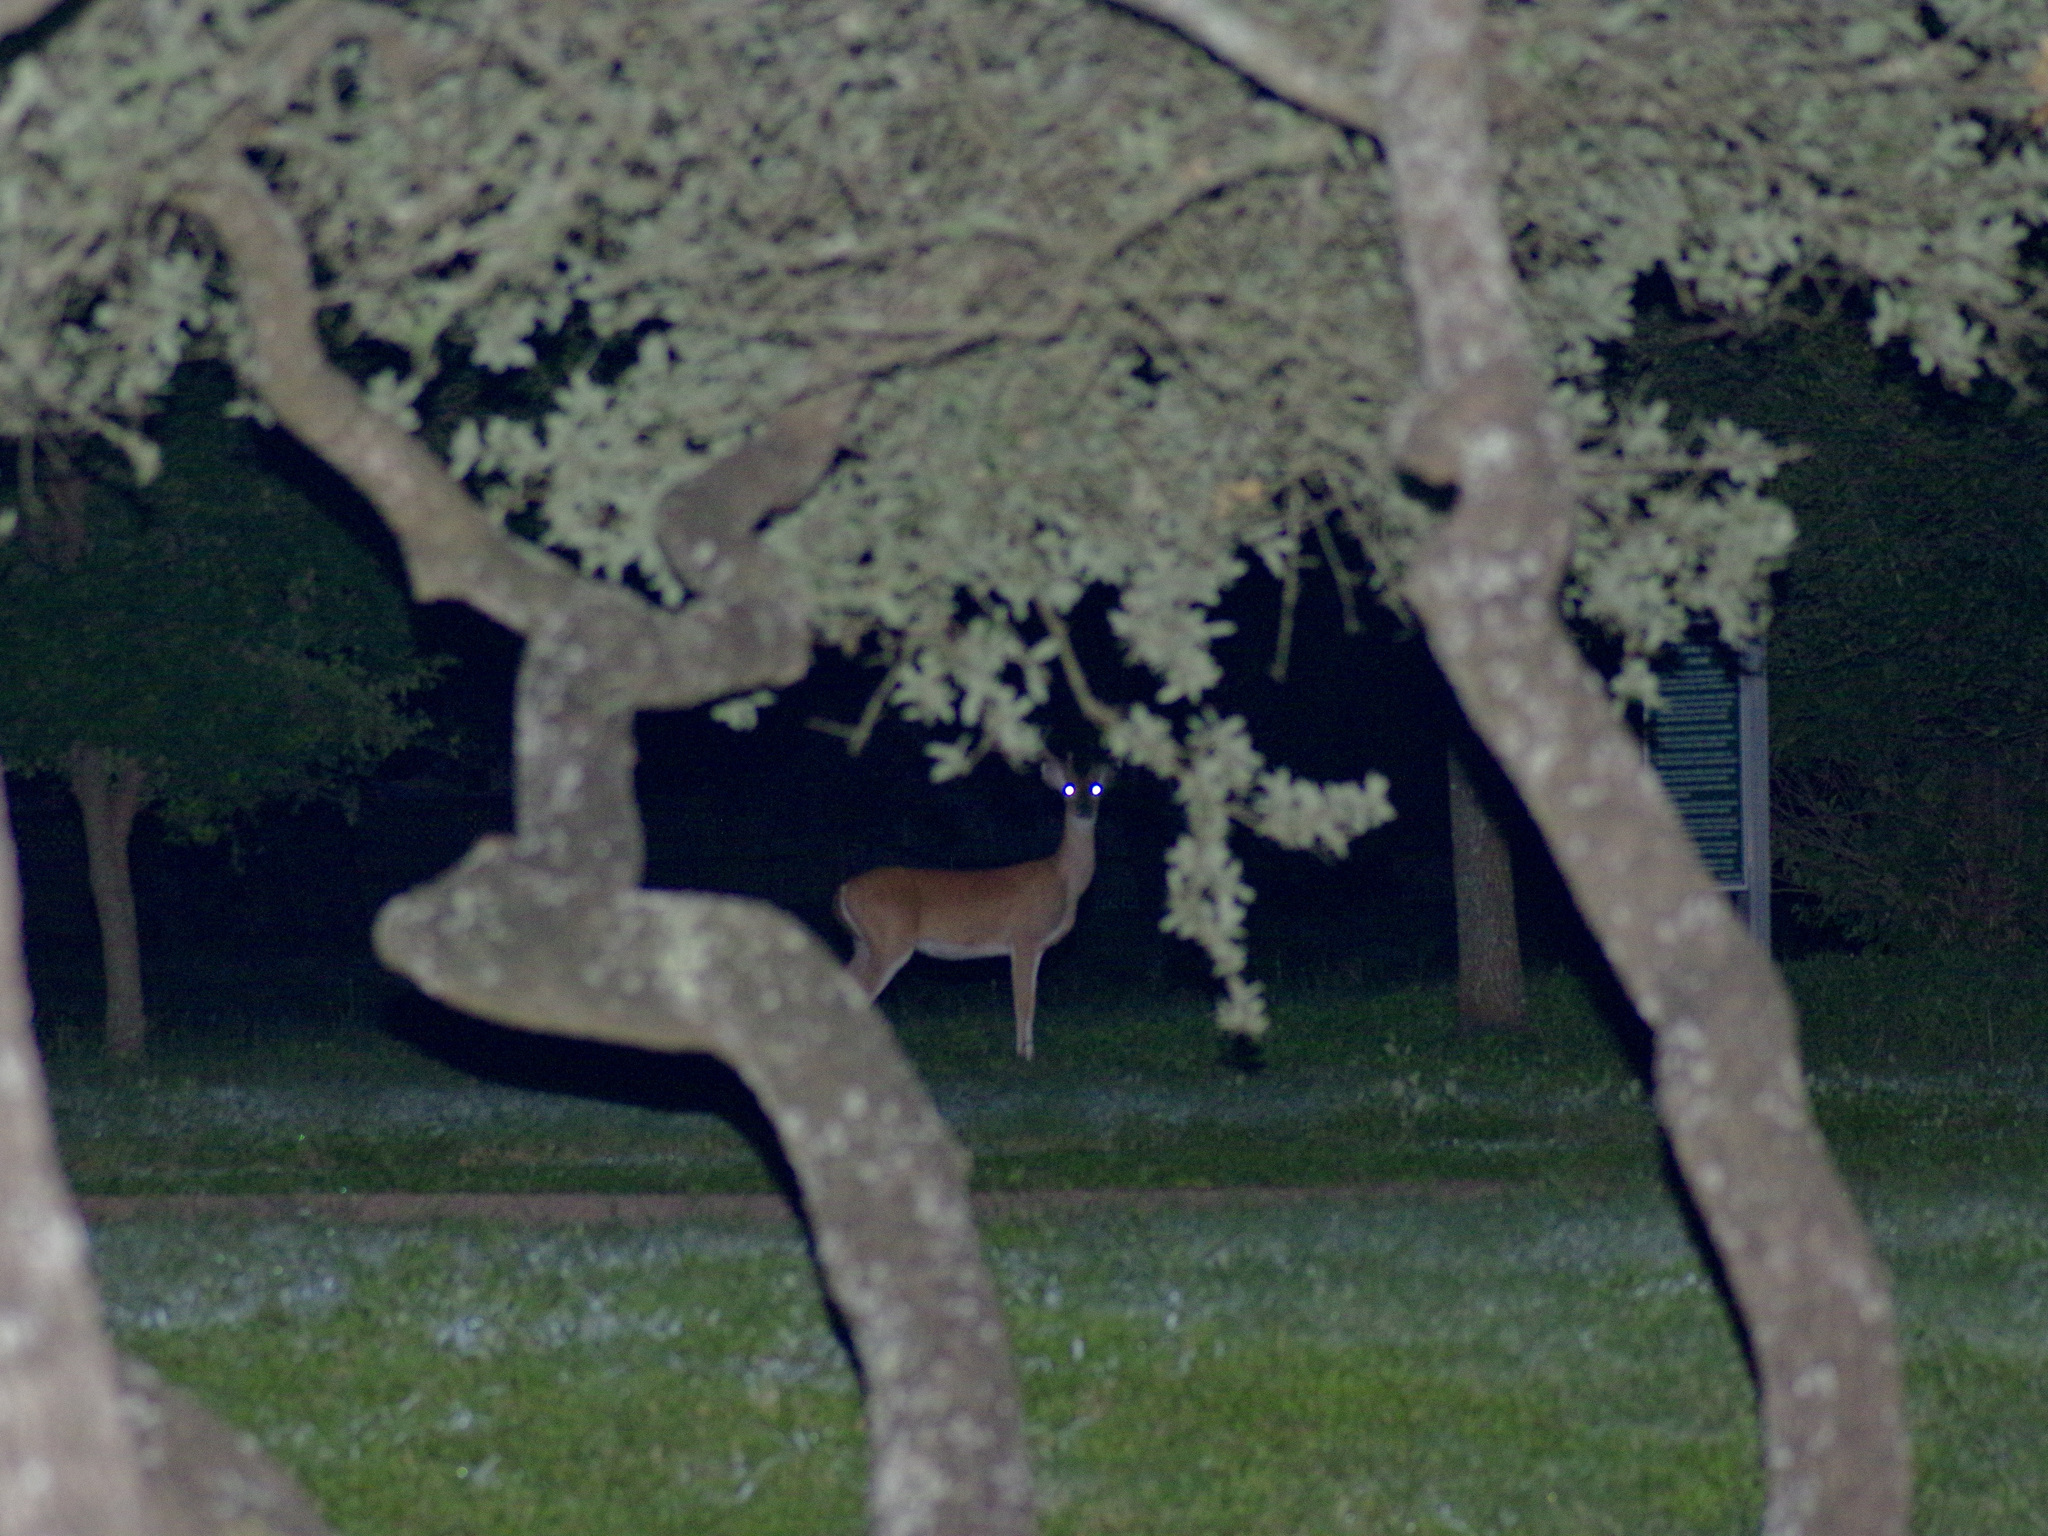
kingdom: Animalia
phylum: Chordata
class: Mammalia
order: Artiodactyla
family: Cervidae
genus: Odocoileus
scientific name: Odocoileus virginianus
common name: White-tailed deer
